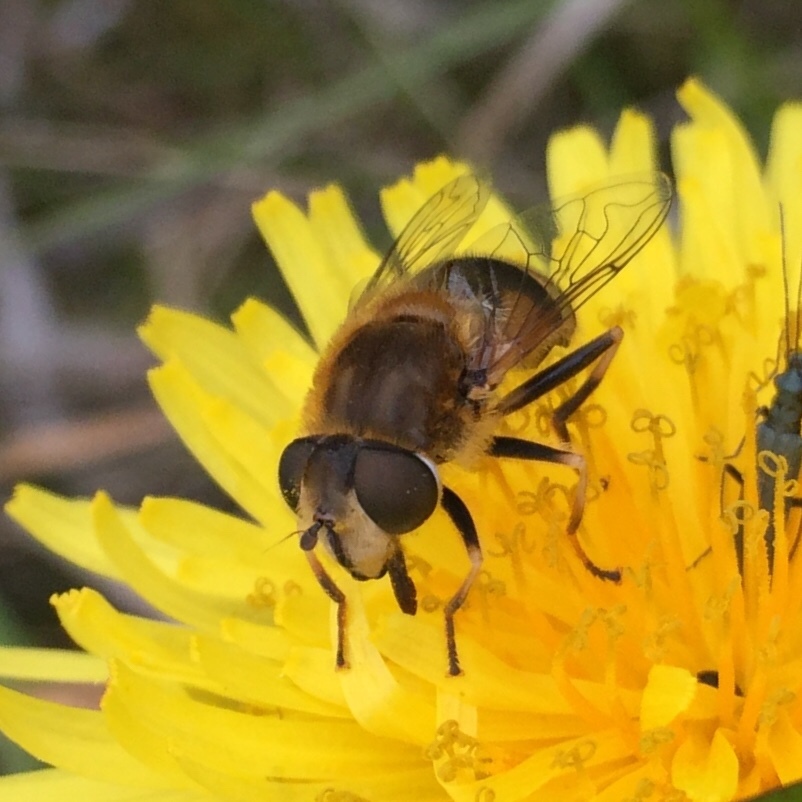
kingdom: Animalia
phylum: Arthropoda
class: Insecta
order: Diptera
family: Syrphidae
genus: Eristalis
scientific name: Eristalis nemorum
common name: Orange-spined drone fly
